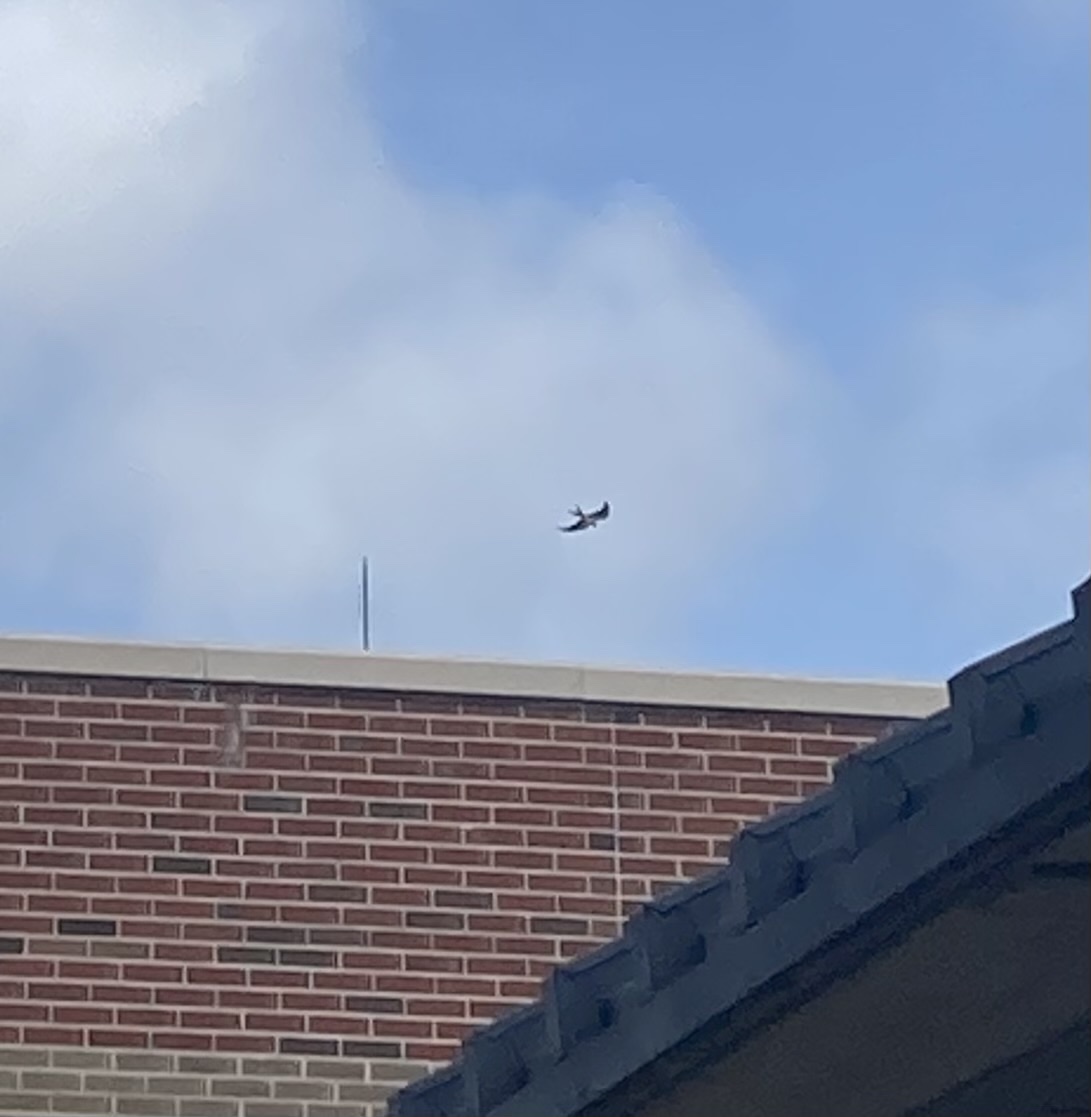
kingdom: Animalia
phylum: Chordata
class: Aves
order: Accipitriformes
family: Accipitridae
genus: Elanoides
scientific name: Elanoides forficatus
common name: Swallow-tailed kite
